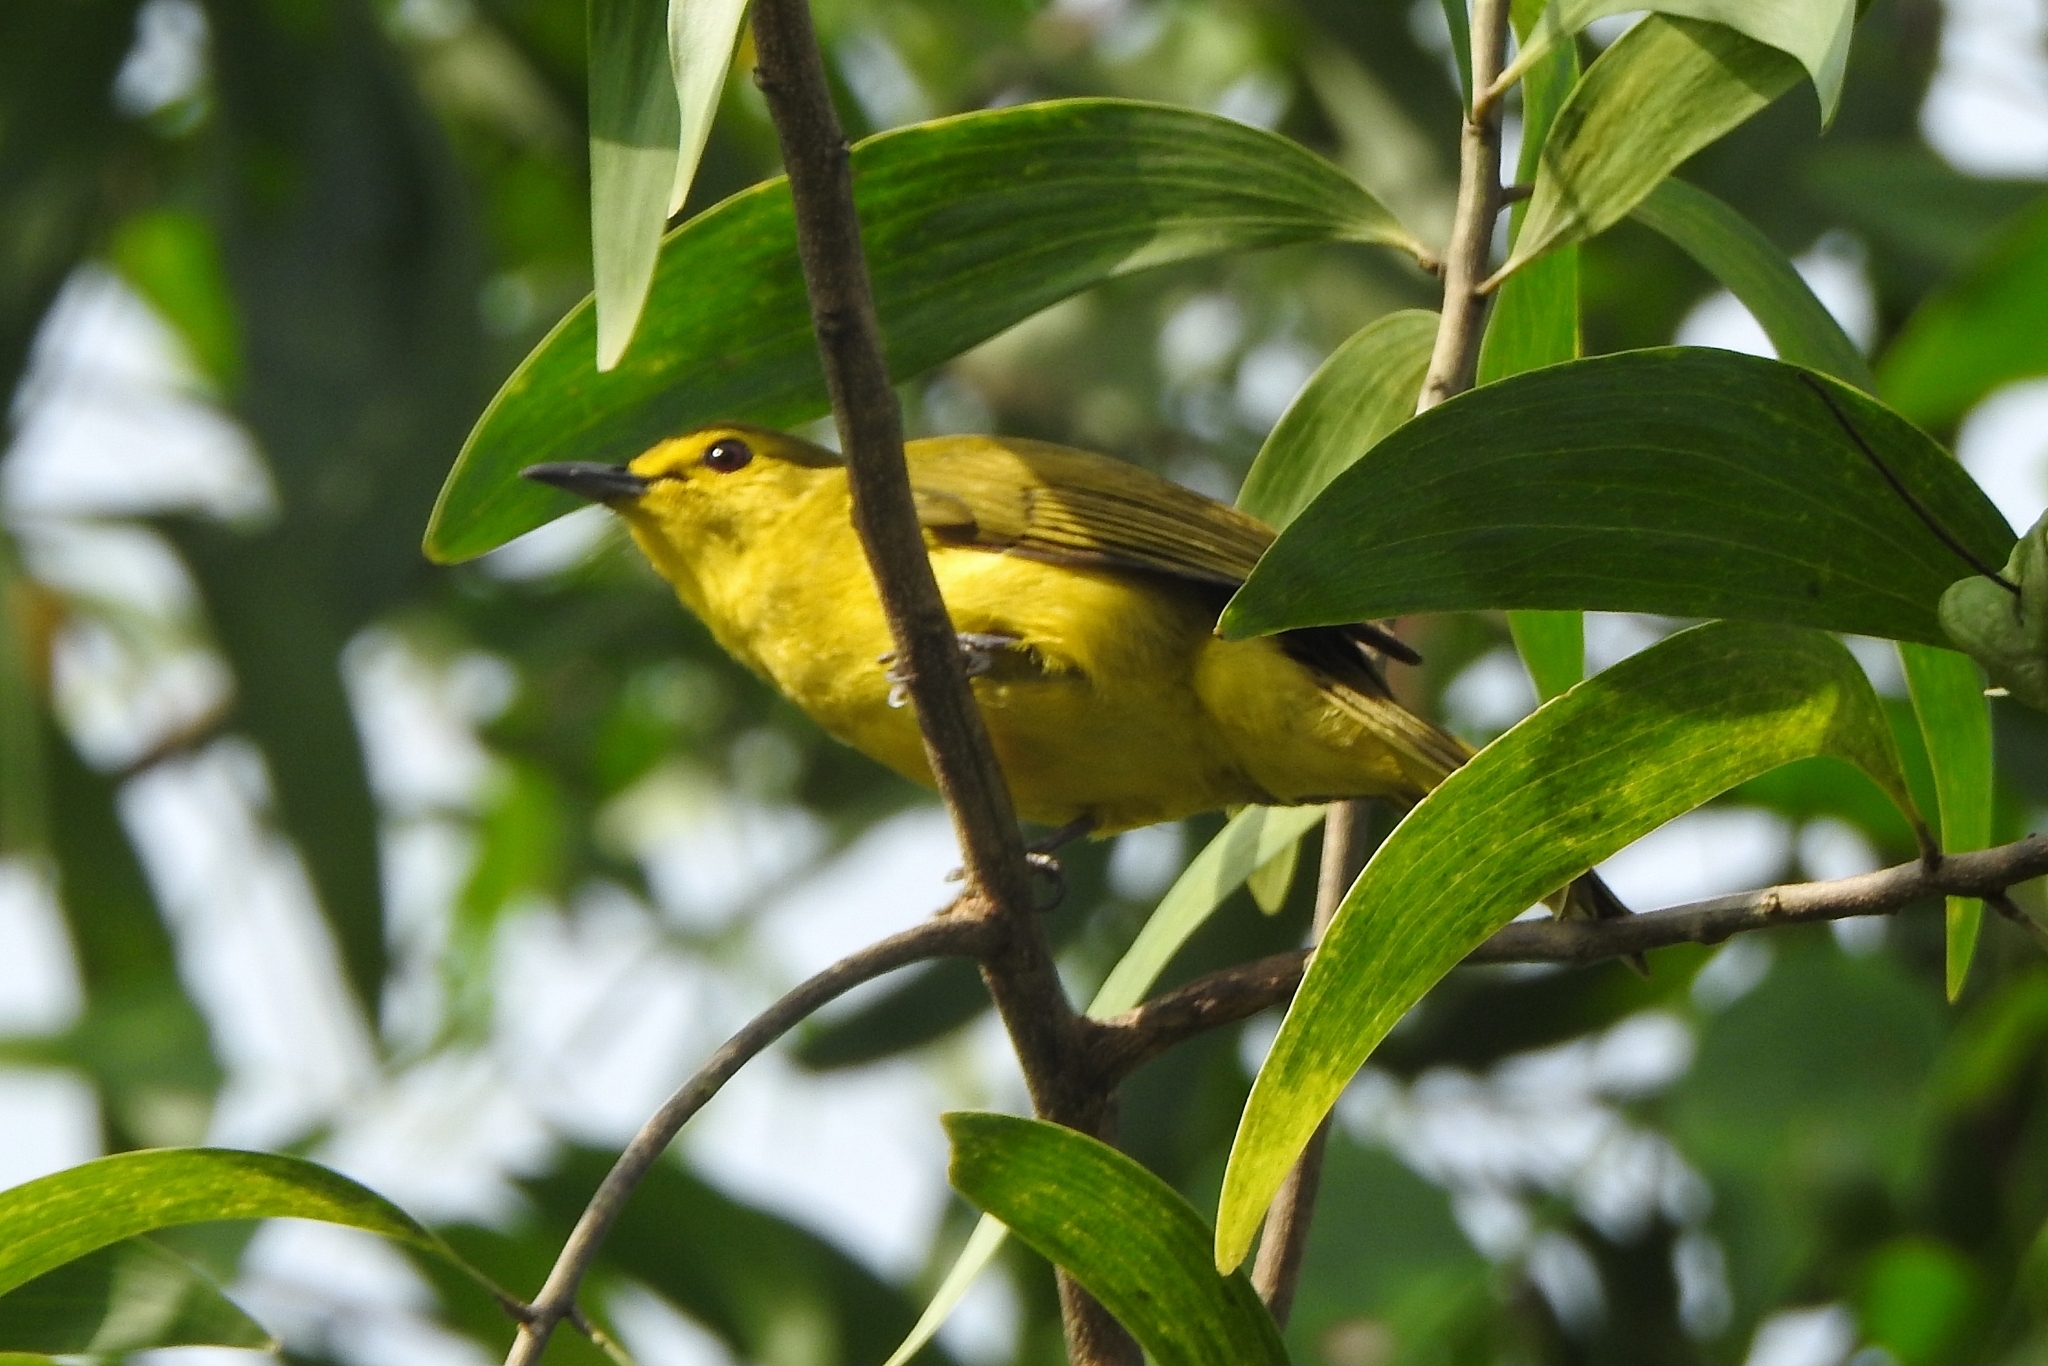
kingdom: Animalia
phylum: Chordata
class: Aves
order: Passeriformes
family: Pycnonotidae
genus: Acritillas
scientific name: Acritillas indica
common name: Yellow-browed bulbul
